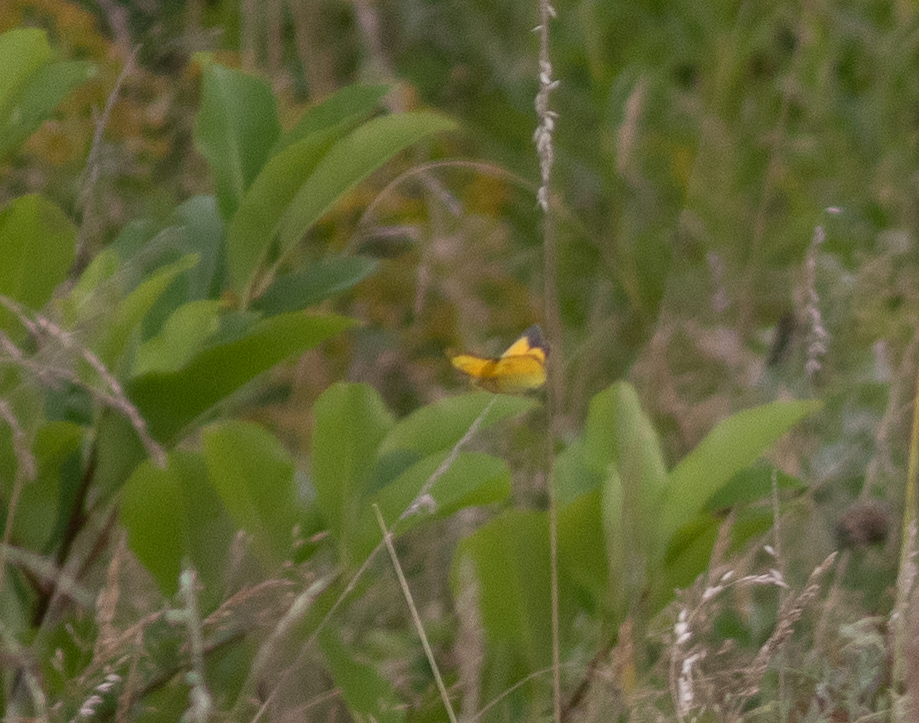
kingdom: Animalia
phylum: Arthropoda
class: Insecta
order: Lepidoptera
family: Pieridae
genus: Colias
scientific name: Colias eurytheme
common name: Alfalfa butterfly
